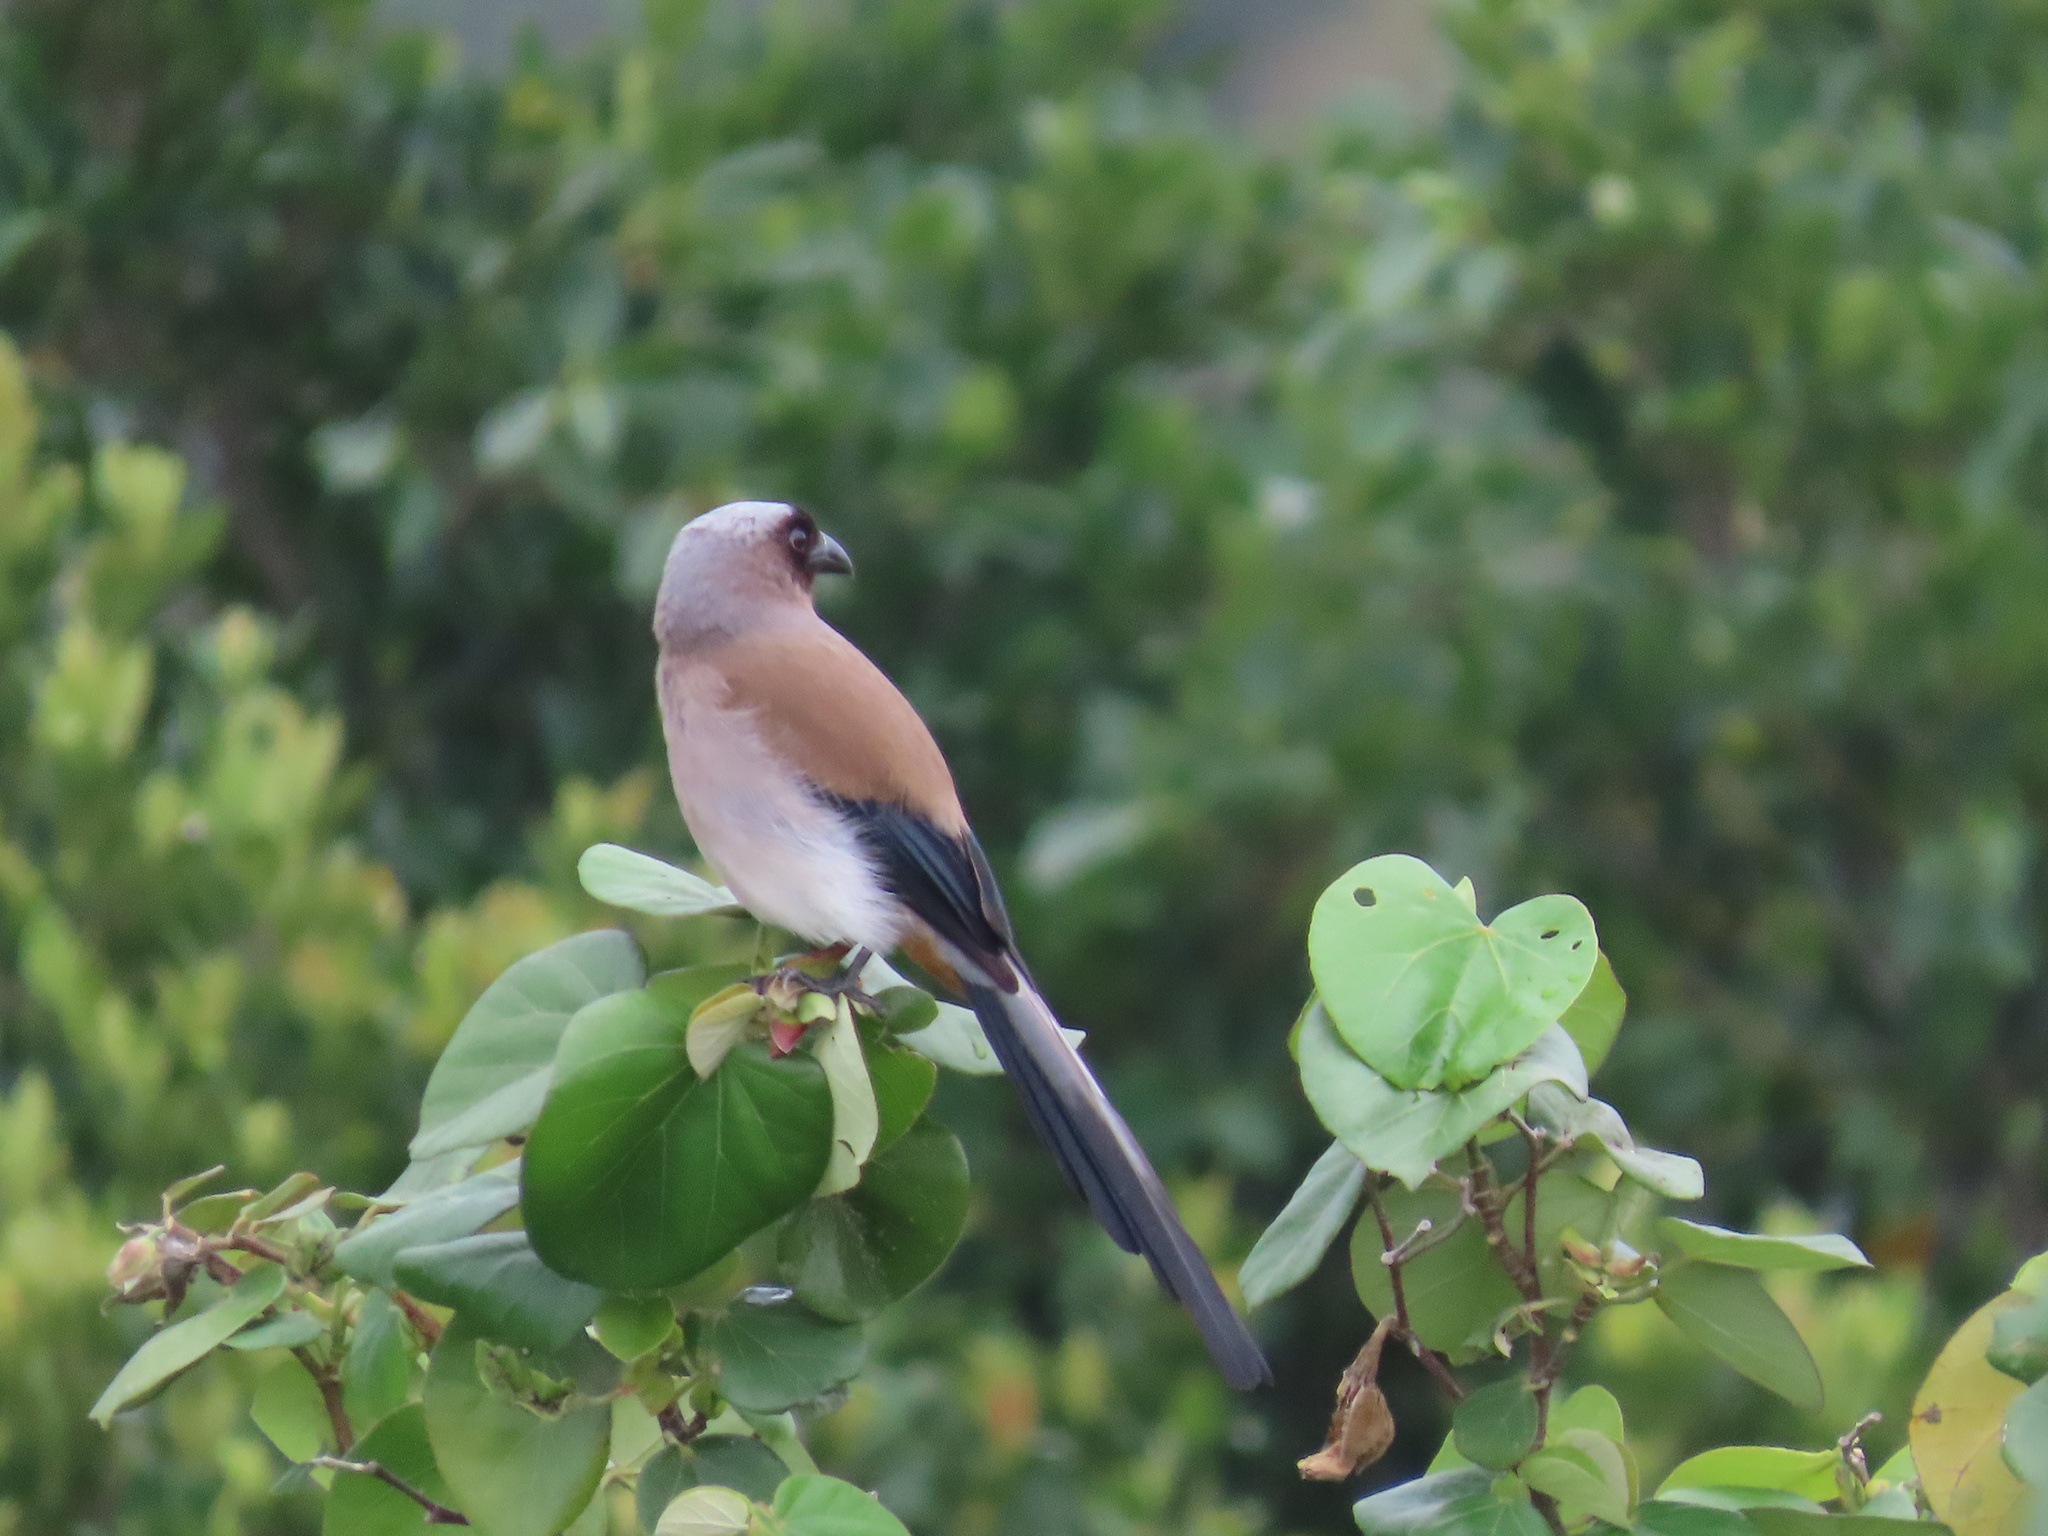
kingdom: Animalia
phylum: Chordata
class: Aves
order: Passeriformes
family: Corvidae
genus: Dendrocitta
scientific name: Dendrocitta formosae
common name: Grey treepie
